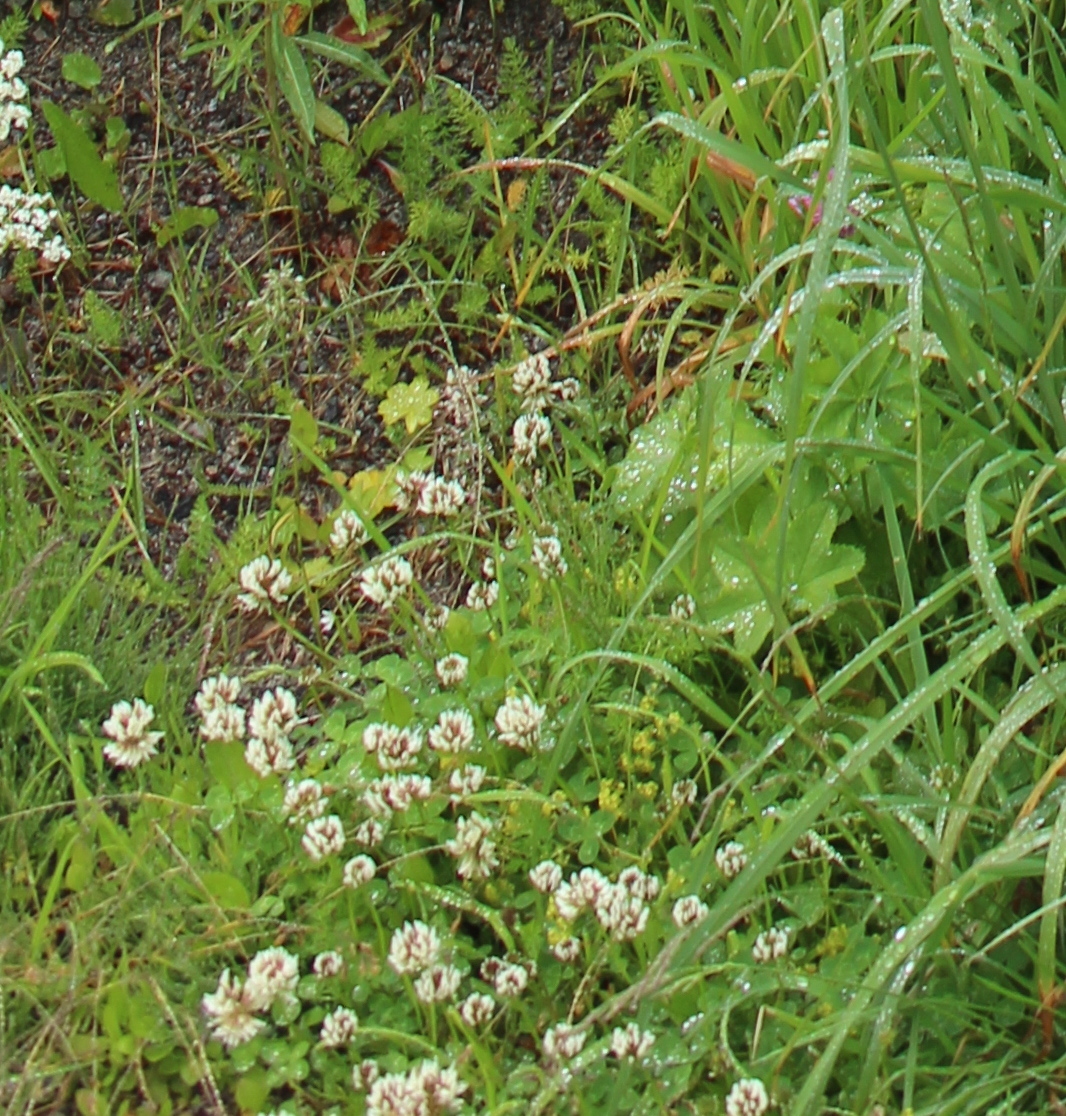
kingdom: Plantae
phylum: Tracheophyta
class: Magnoliopsida
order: Fabales
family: Fabaceae
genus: Trifolium
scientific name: Trifolium repens
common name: White clover
